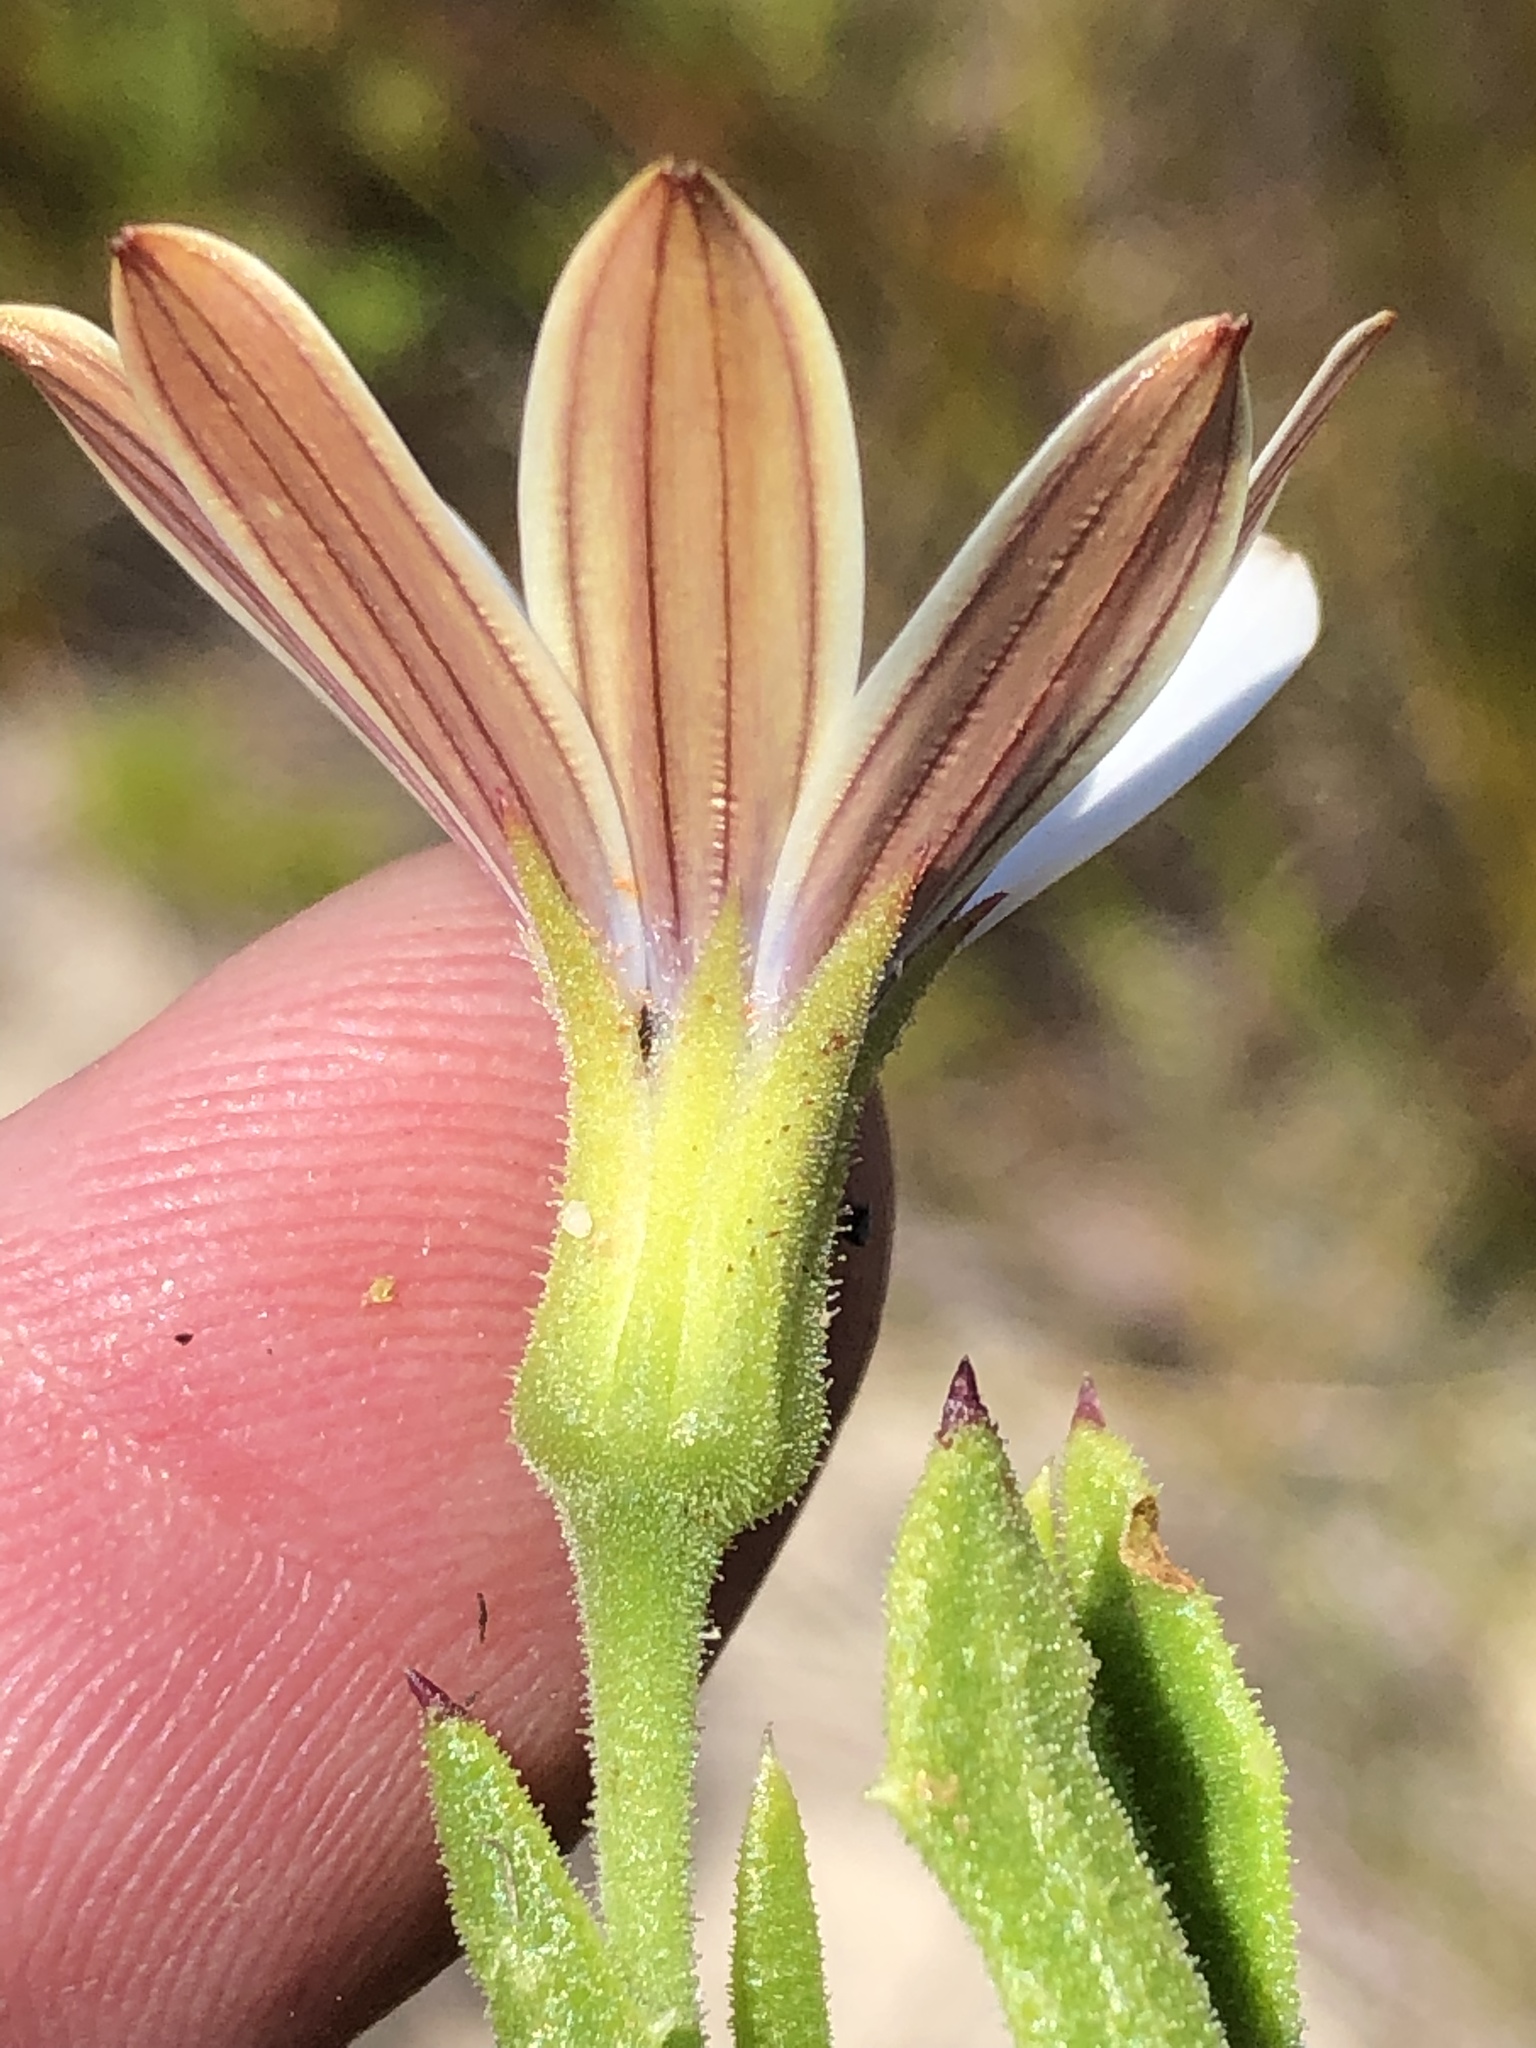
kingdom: Plantae
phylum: Tracheophyta
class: Magnoliopsida
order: Asterales
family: Asteraceae
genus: Dimorphotheca
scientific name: Dimorphotheca acutifolia
